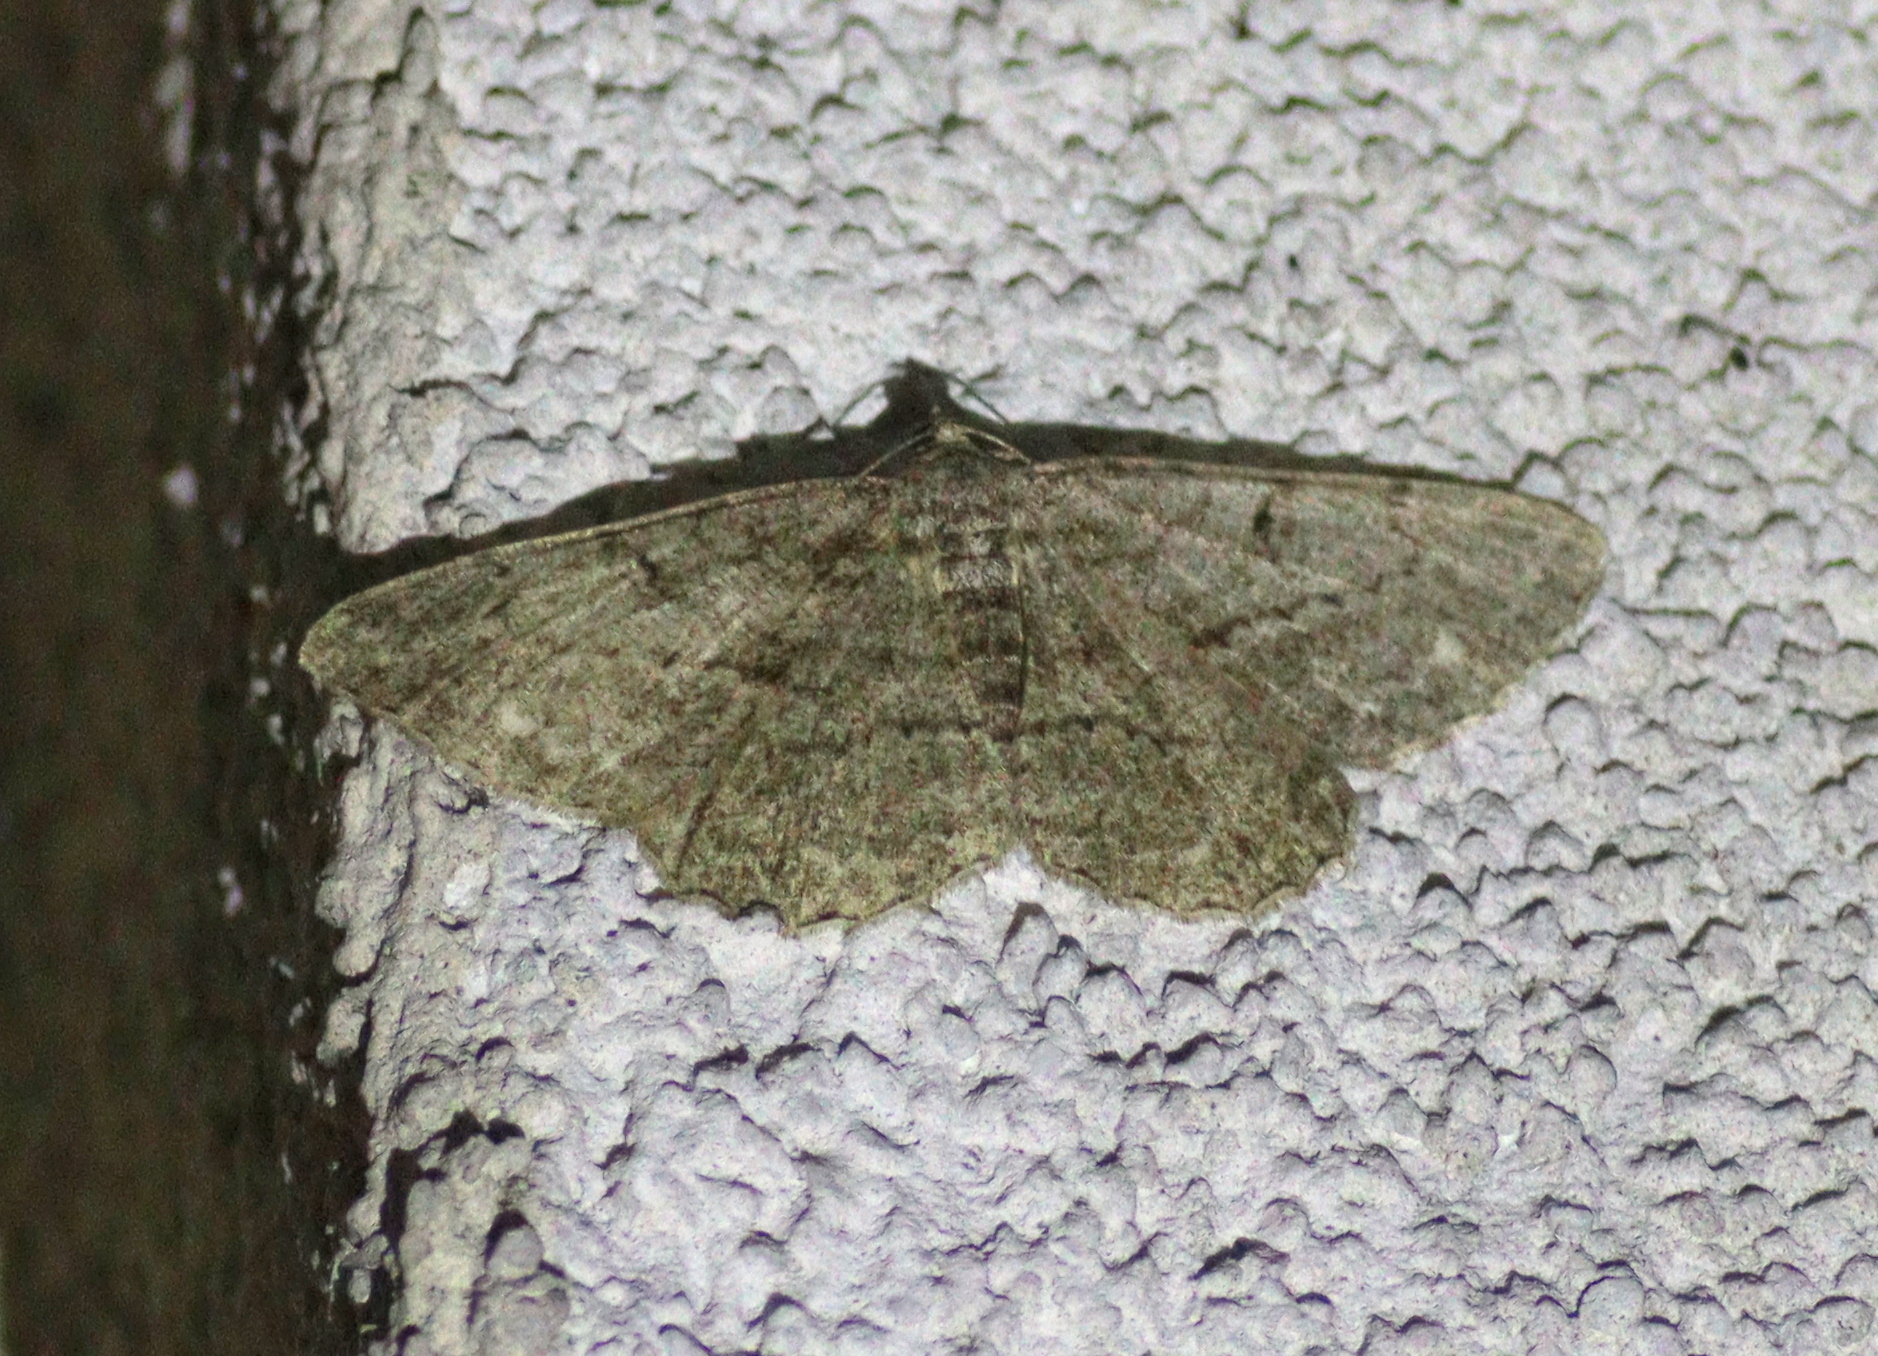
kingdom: Animalia
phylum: Arthropoda
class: Insecta
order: Lepidoptera
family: Geometridae
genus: Peribatodes
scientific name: Peribatodes rhomboidaria
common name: Willow beauty
